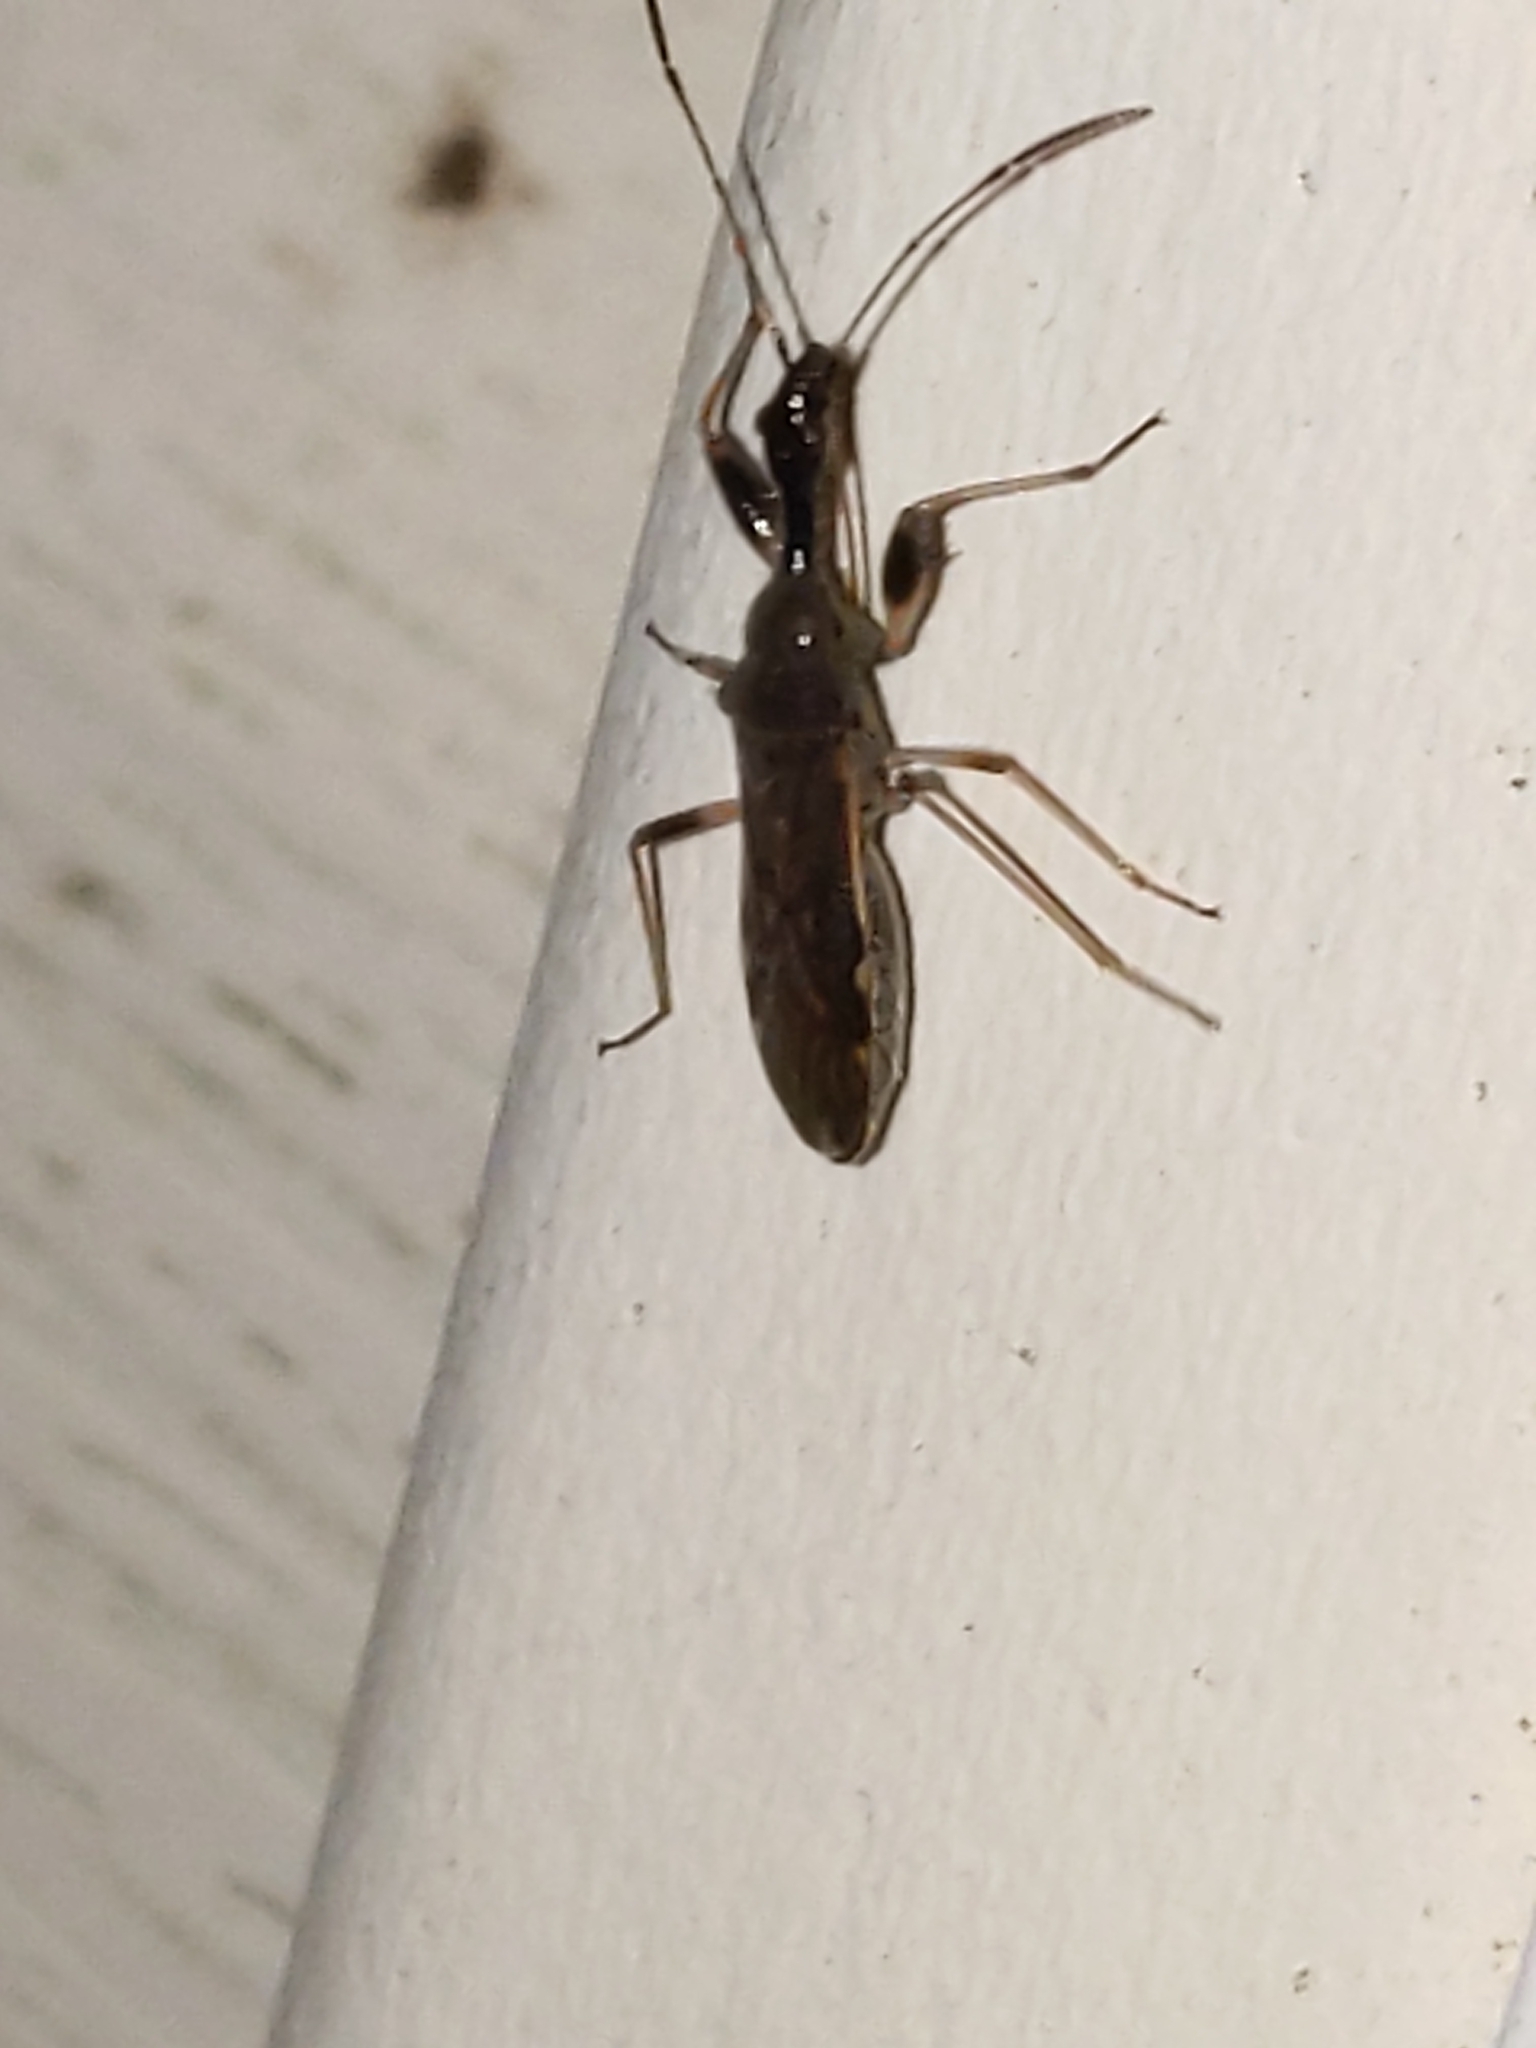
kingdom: Animalia
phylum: Arthropoda
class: Insecta
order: Hemiptera
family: Rhyparochromidae
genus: Myodocha
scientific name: Myodocha serripes
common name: Long-necked seed bug
